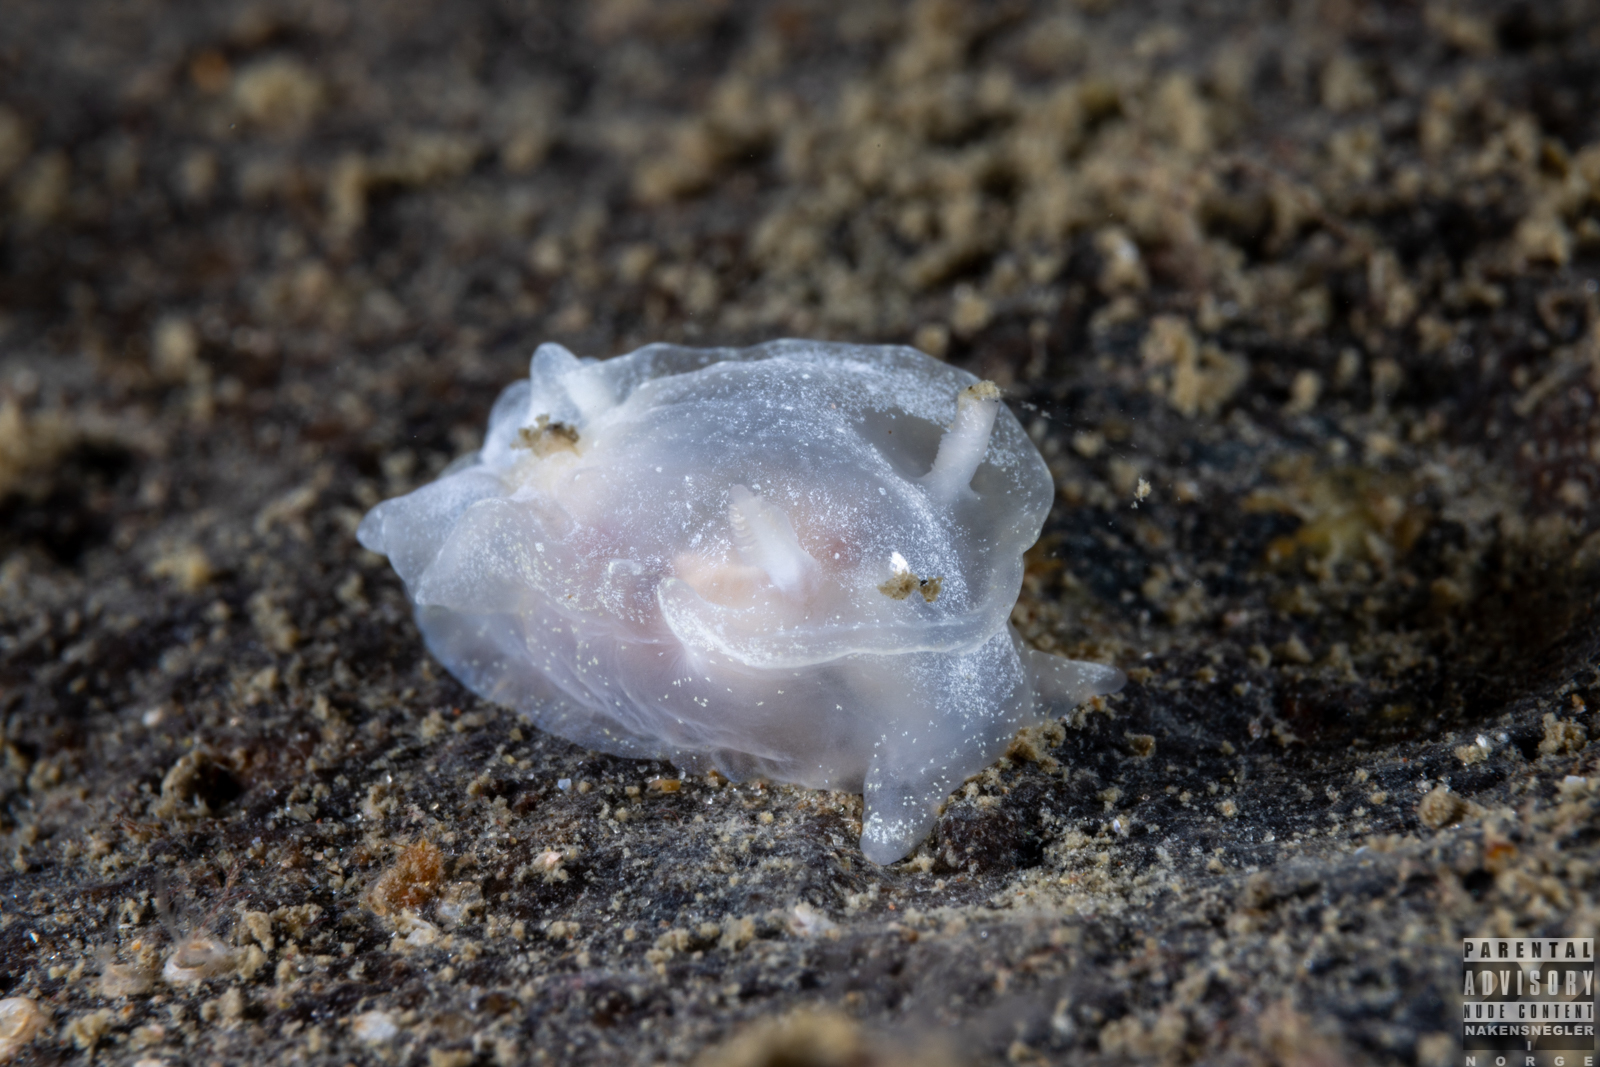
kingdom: Animalia
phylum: Mollusca
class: Gastropoda
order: Nudibranchia
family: Goniodorididae
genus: Okenia
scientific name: Okenia
